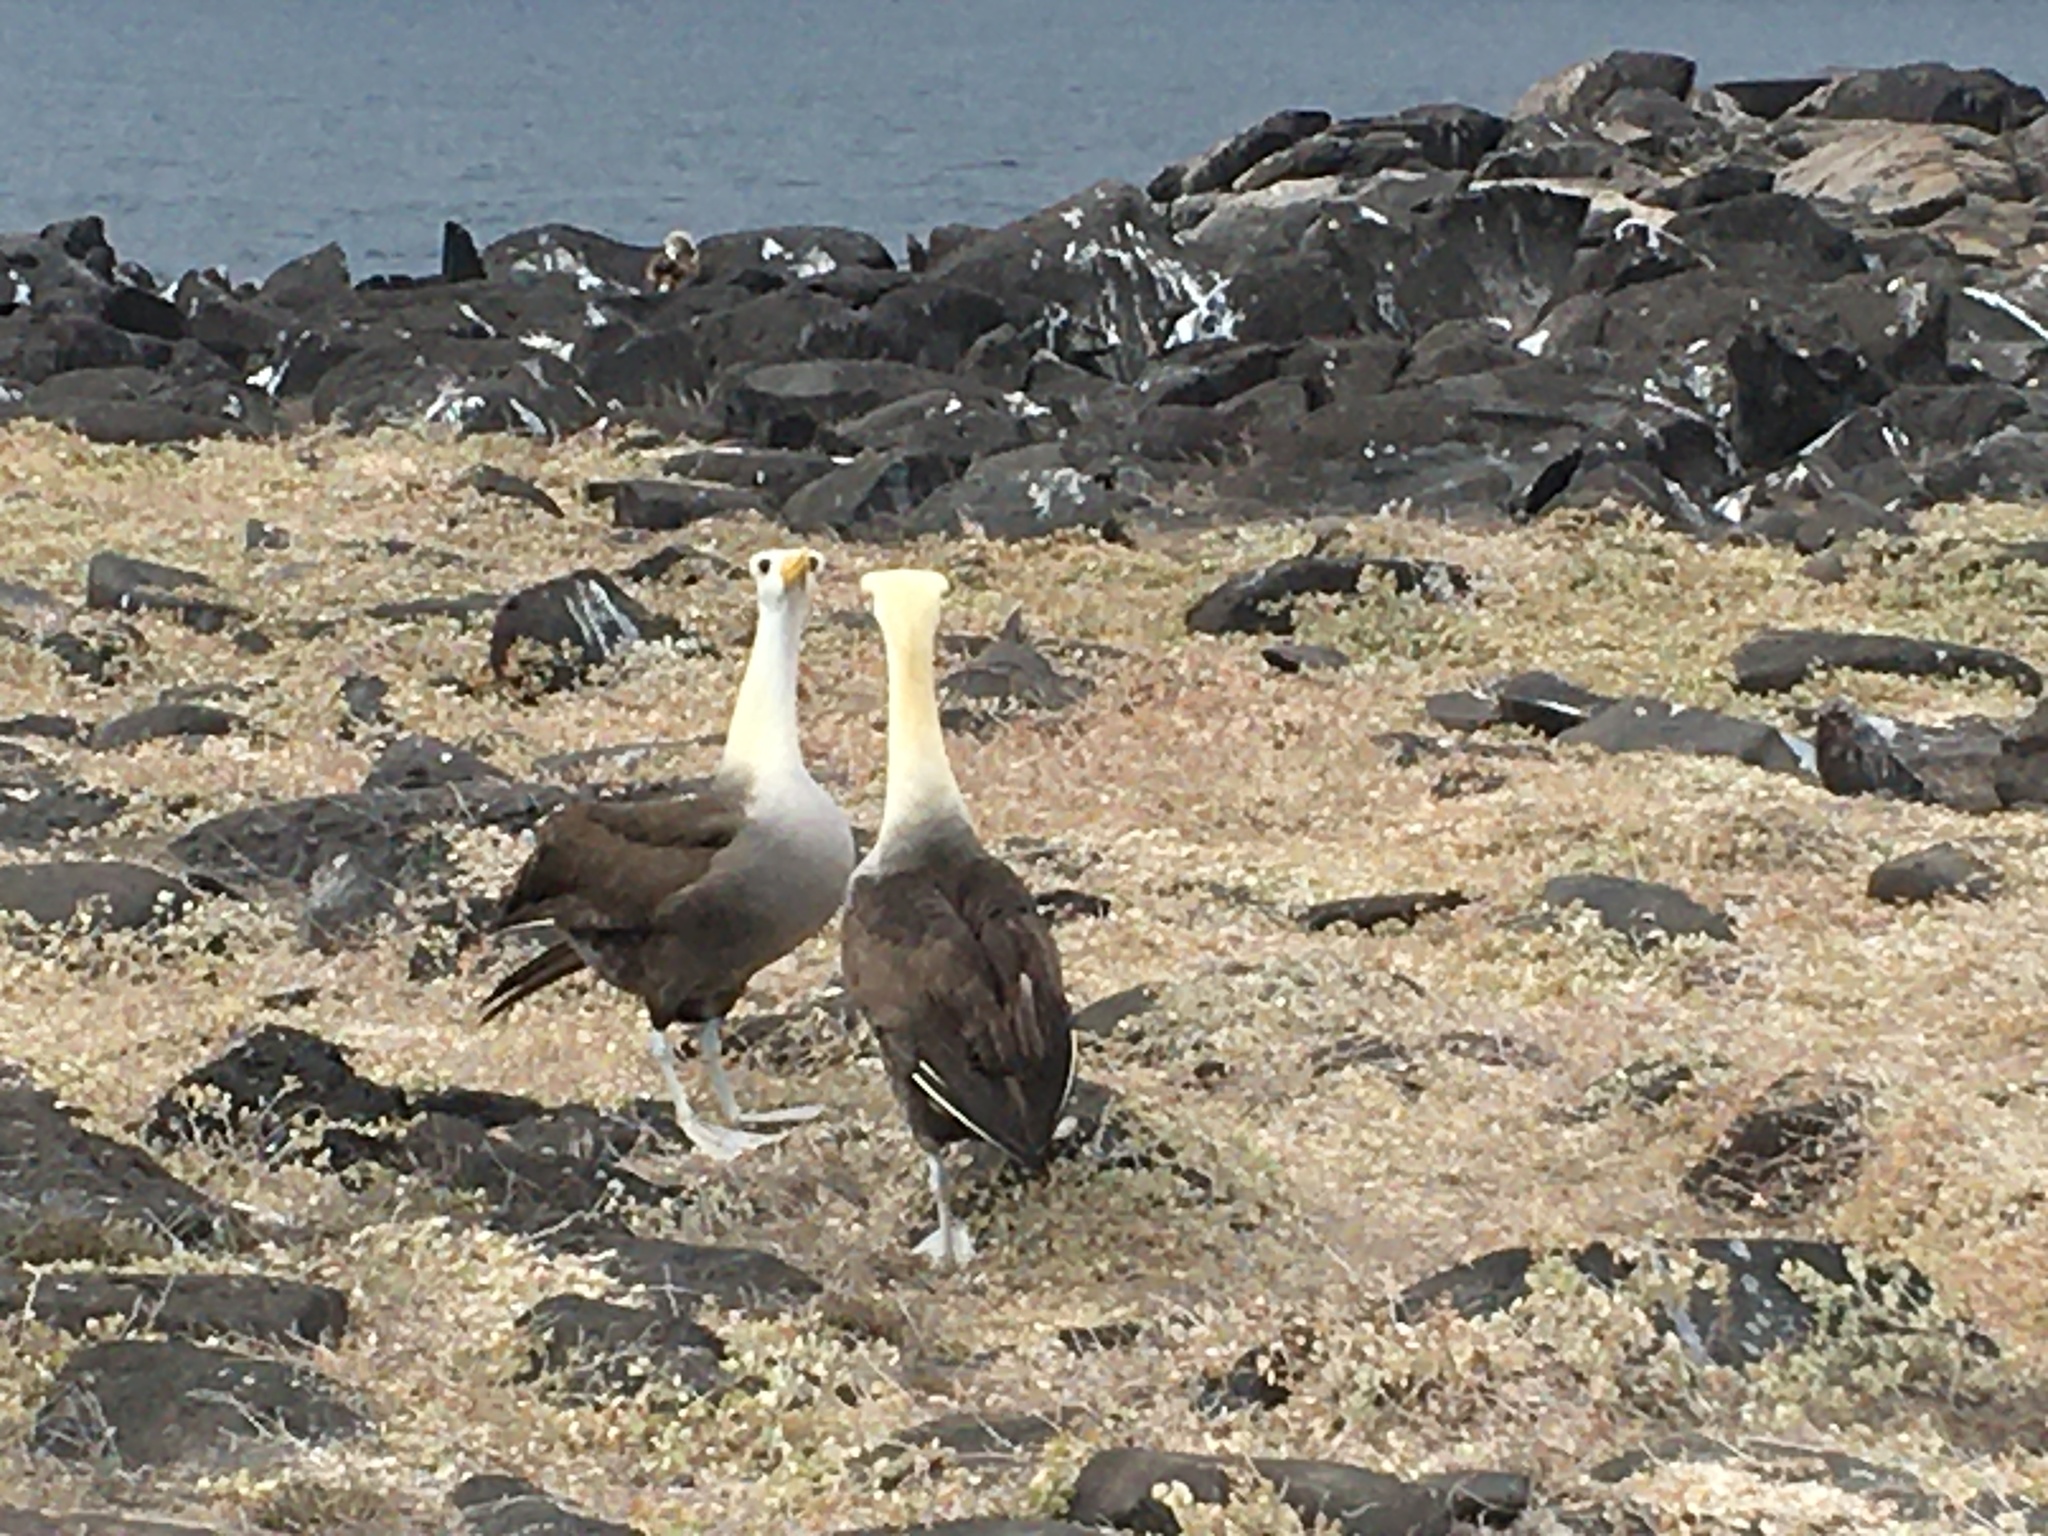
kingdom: Animalia
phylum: Chordata
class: Aves
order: Procellariiformes
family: Diomedeidae
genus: Phoebastria
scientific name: Phoebastria irrorata
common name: Waved albatross
